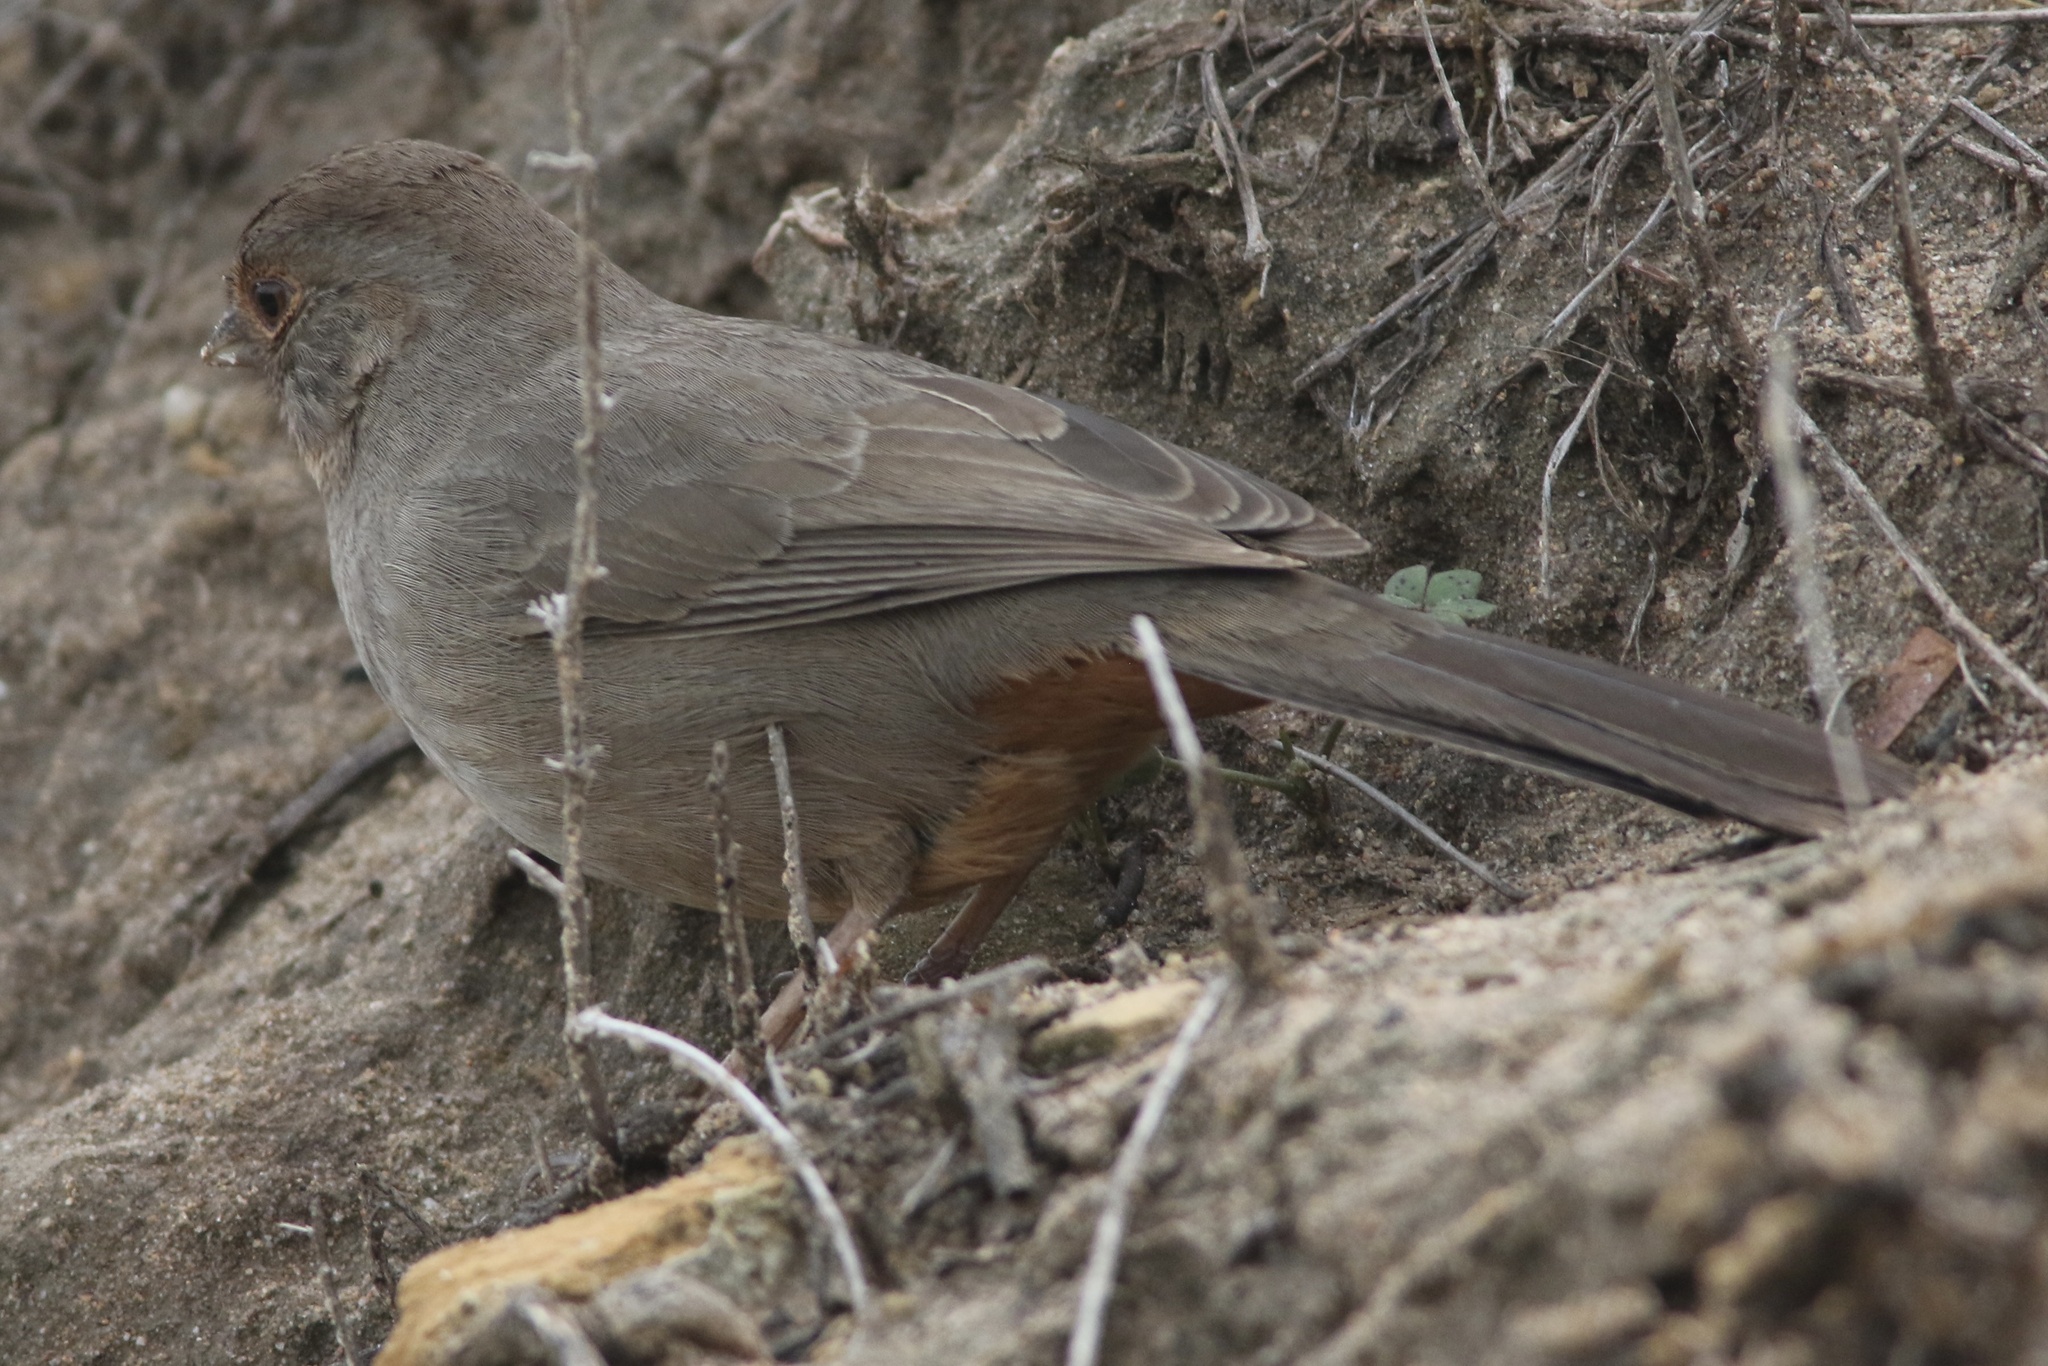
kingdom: Animalia
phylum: Chordata
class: Aves
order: Passeriformes
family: Passerellidae
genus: Melozone
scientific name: Melozone crissalis
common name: California towhee
